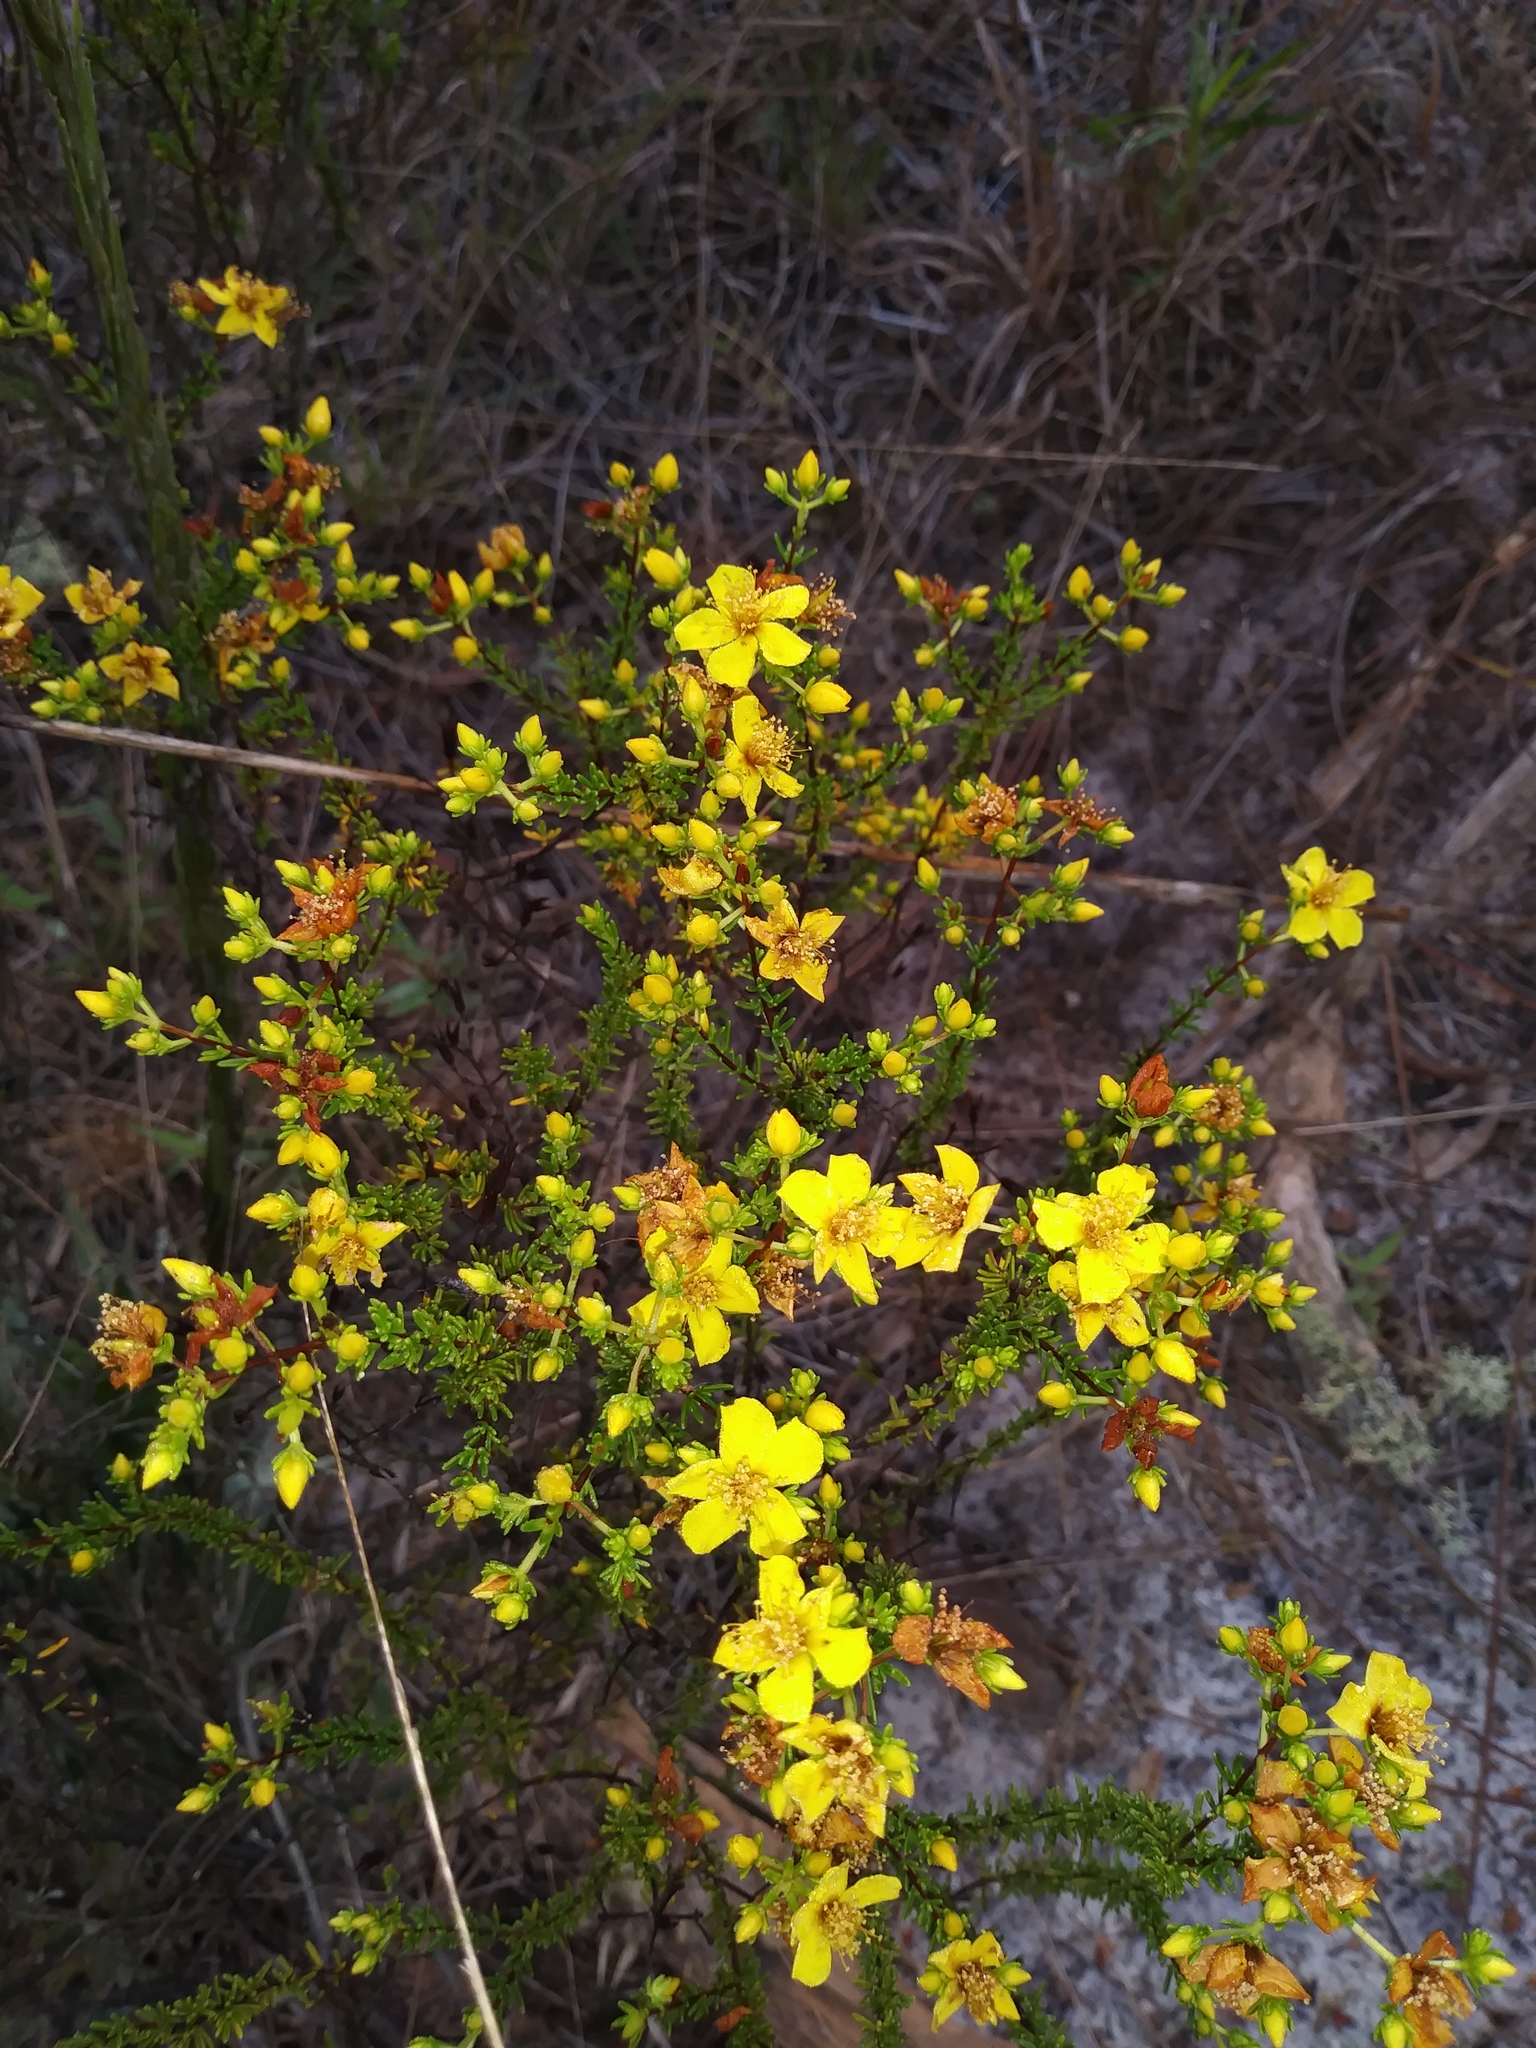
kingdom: Plantae
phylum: Tracheophyta
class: Magnoliopsida
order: Malpighiales
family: Hypericaceae
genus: Hypericum
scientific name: Hypericum tenuifolium
